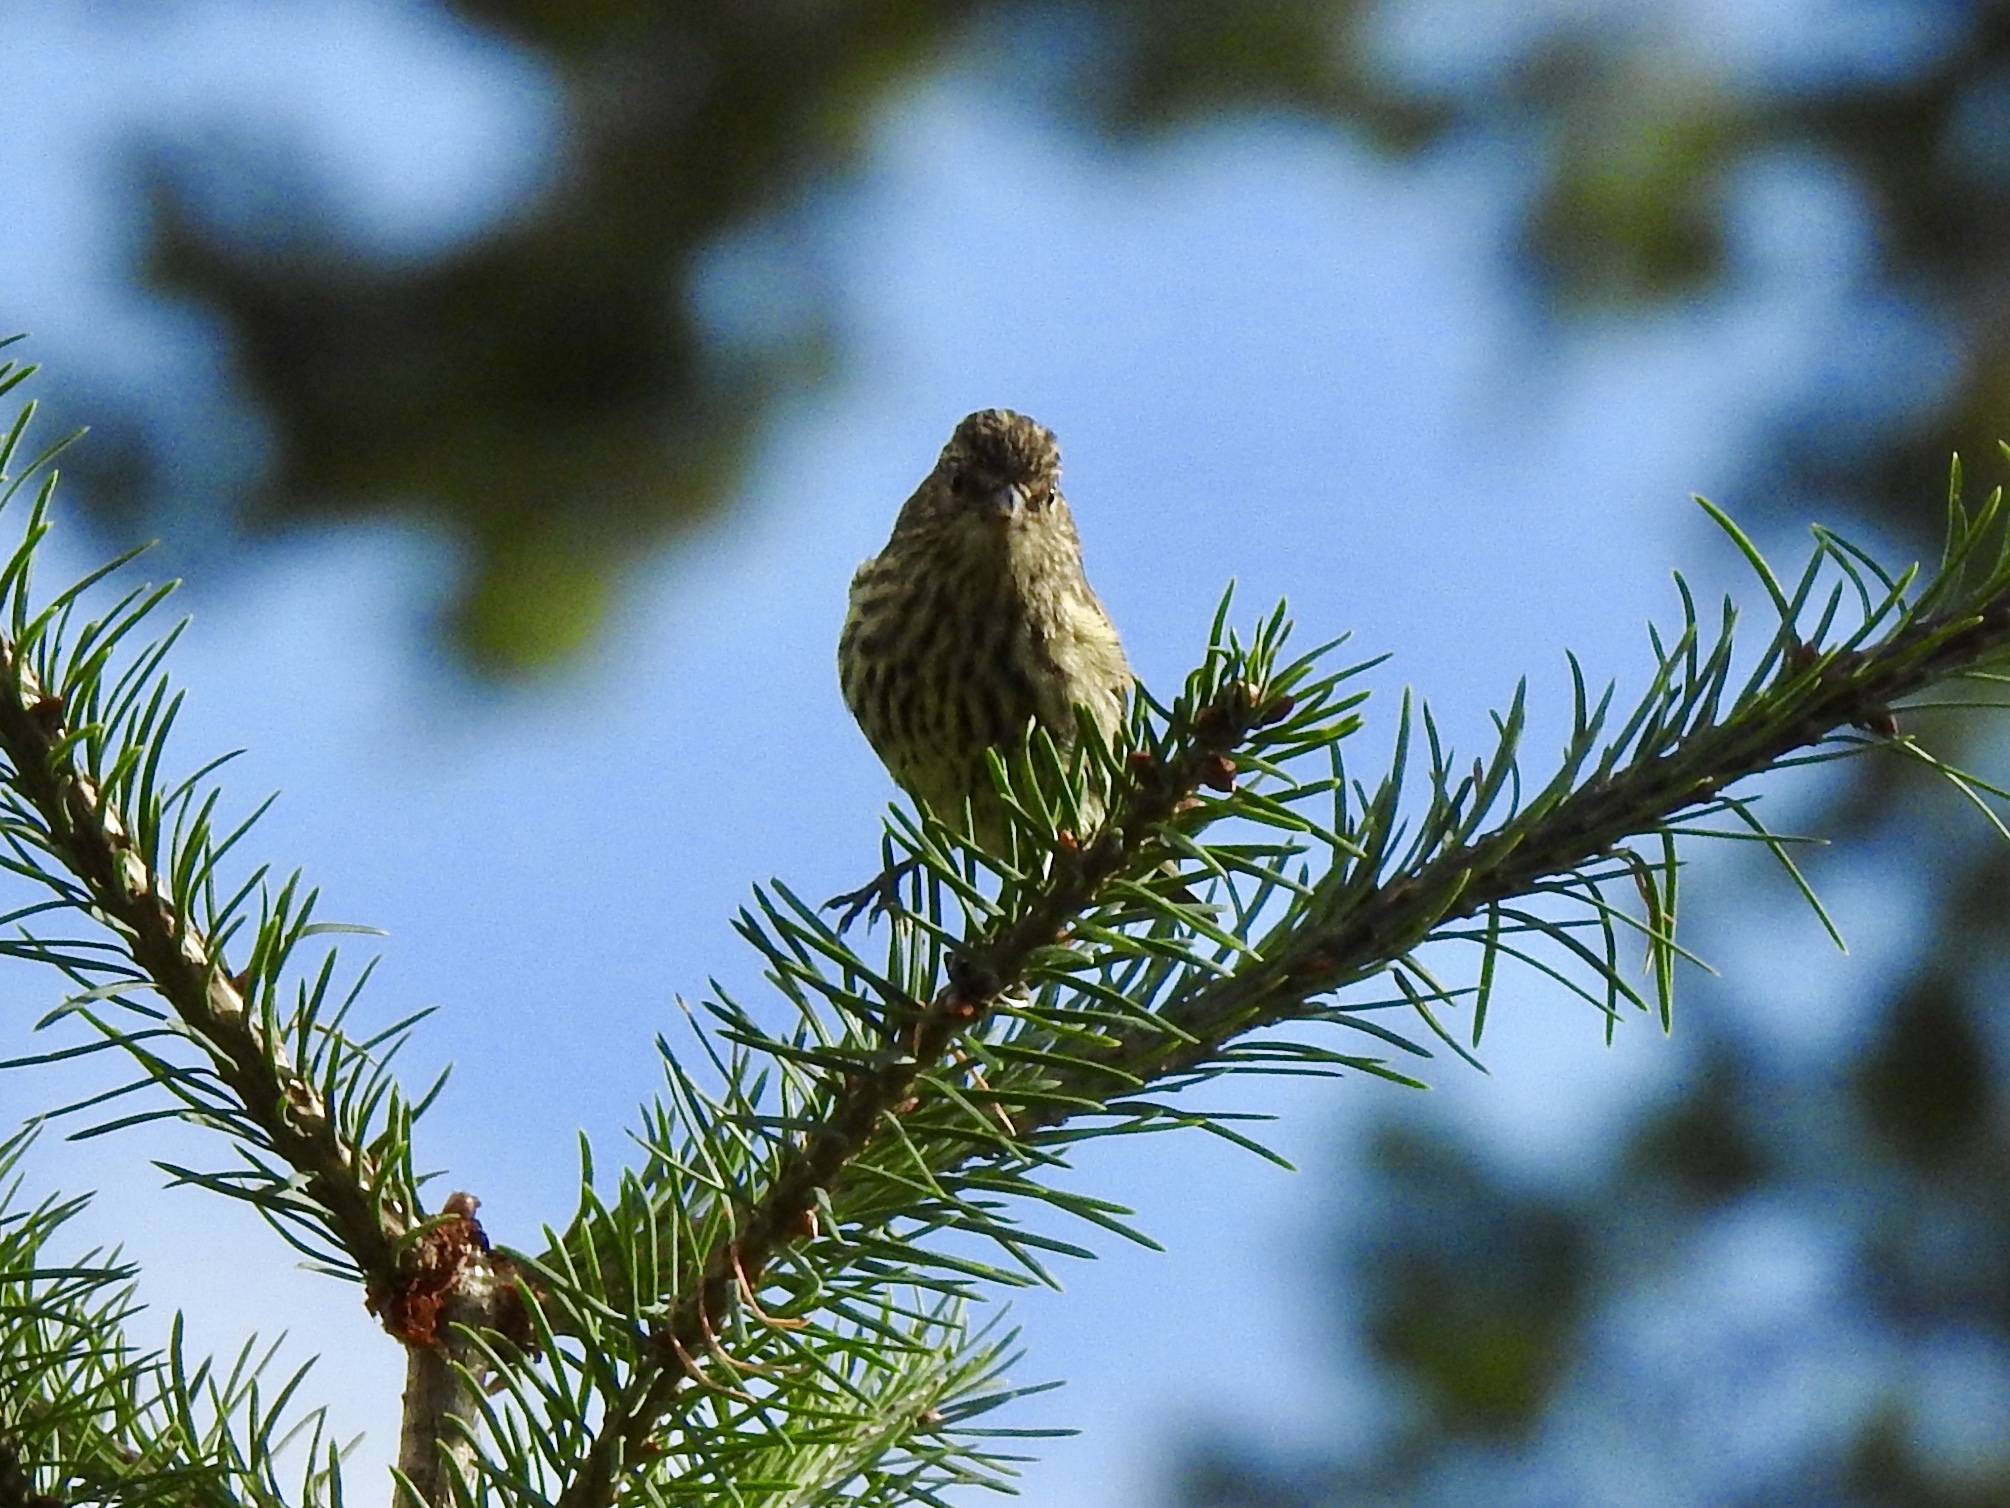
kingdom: Animalia
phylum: Chordata
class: Aves
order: Passeriformes
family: Fringillidae
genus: Spinus
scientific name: Spinus pinus
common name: Pine siskin
